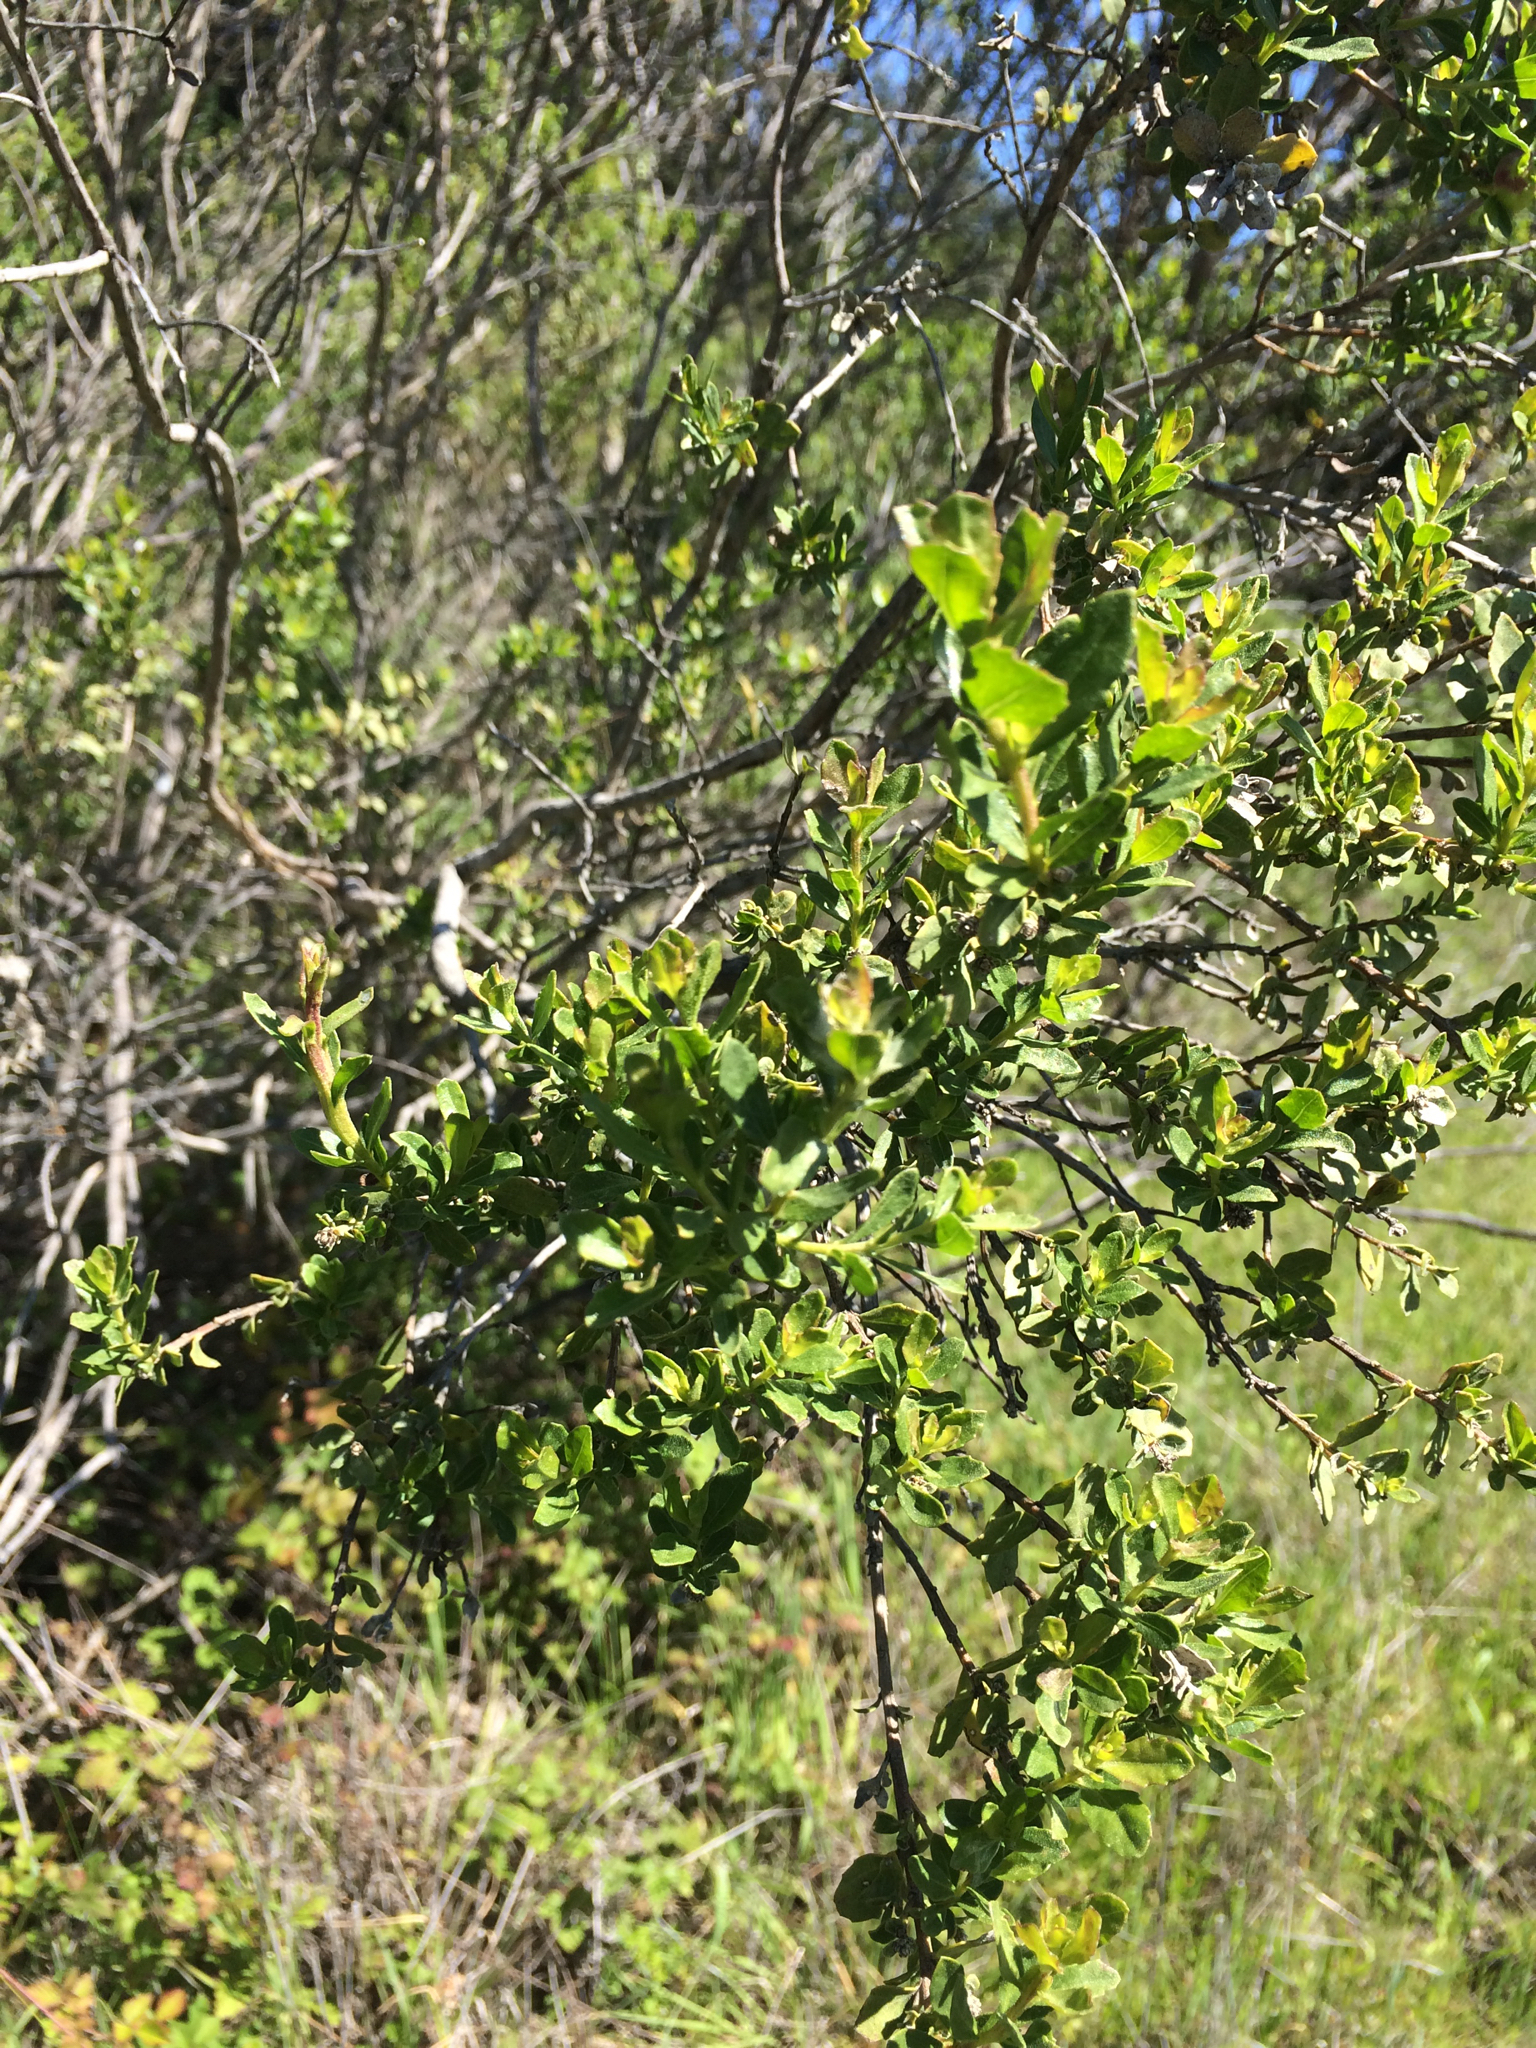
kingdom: Plantae
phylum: Tracheophyta
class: Magnoliopsida
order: Asterales
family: Asteraceae
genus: Baccharis
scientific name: Baccharis pilularis
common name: Coyotebrush
